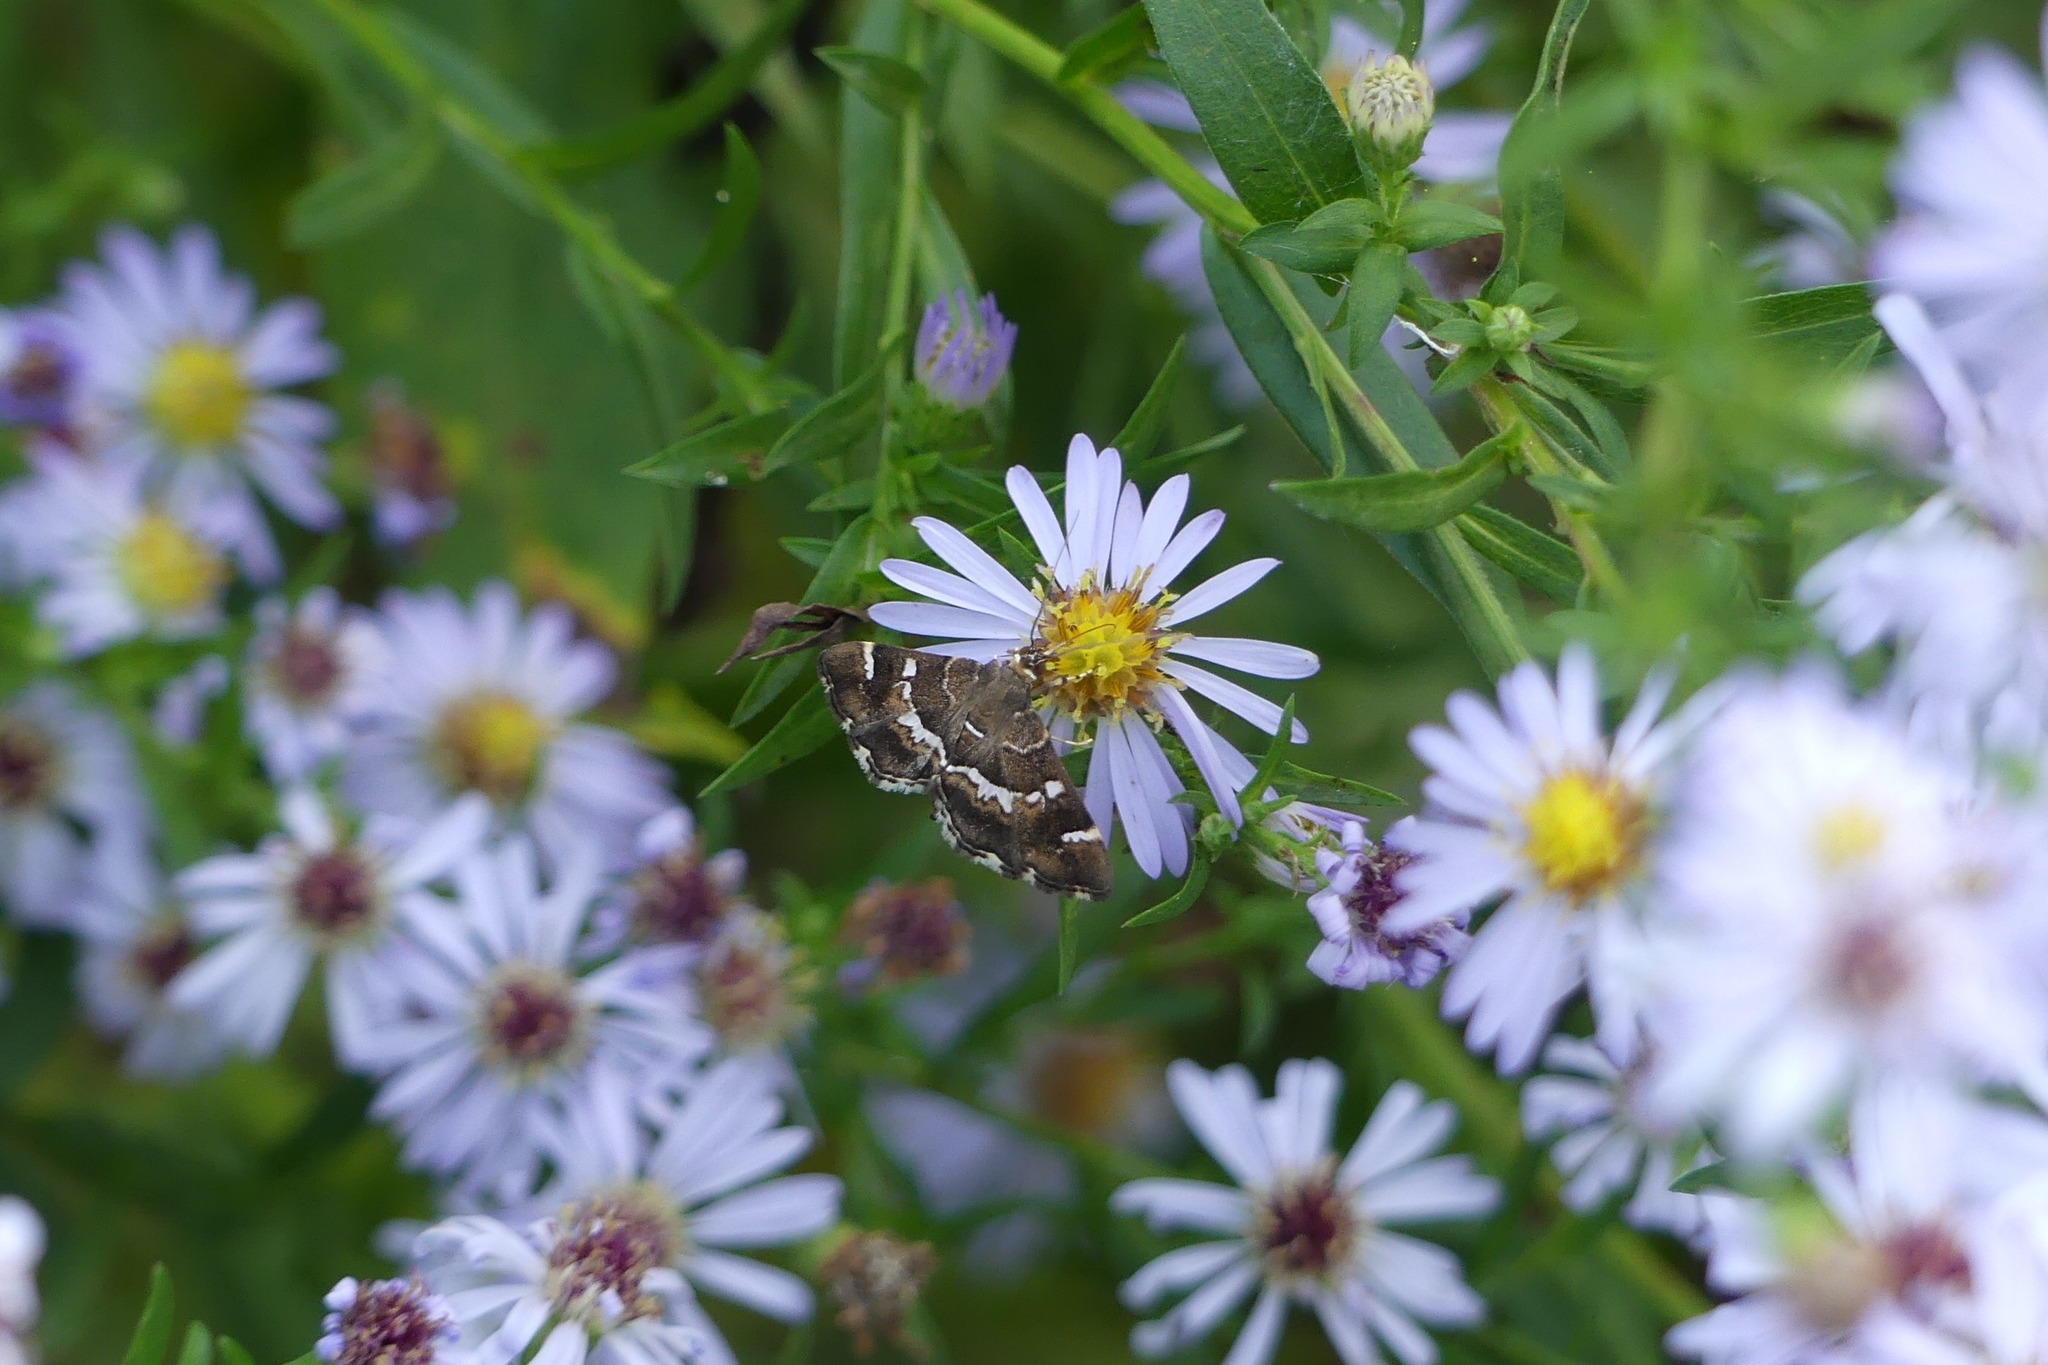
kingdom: Animalia
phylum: Arthropoda
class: Insecta
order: Lepidoptera
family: Crambidae
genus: Hymenia
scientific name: Hymenia perspectalis
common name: Spotted beet webworm
